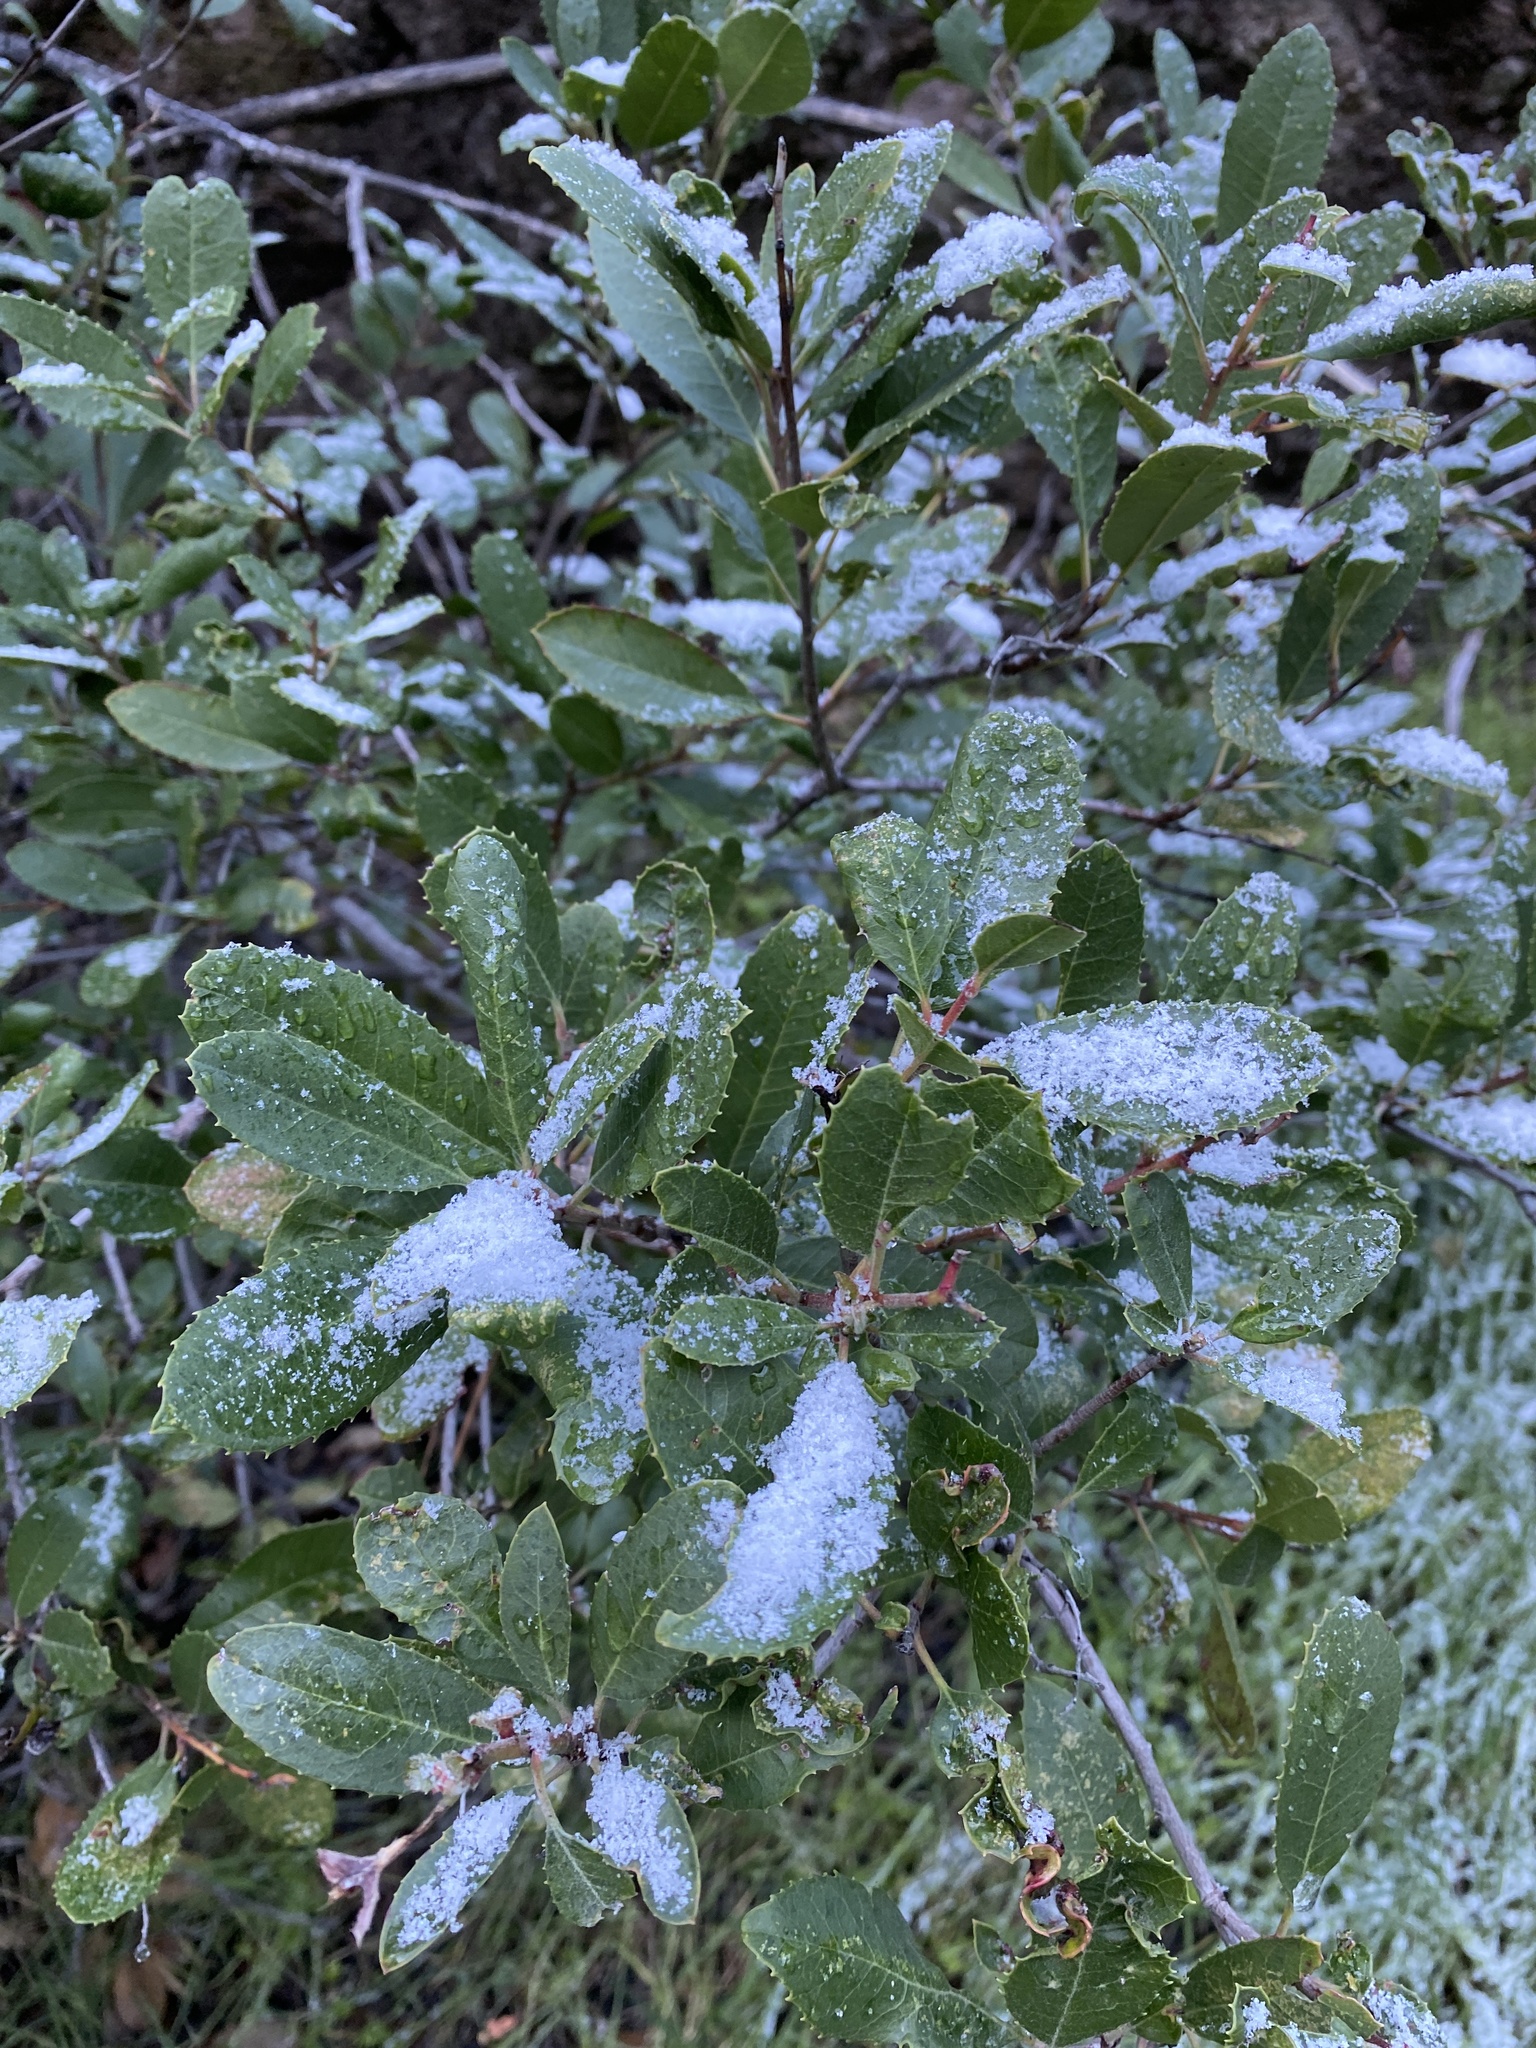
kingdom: Plantae
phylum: Tracheophyta
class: Magnoliopsida
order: Rosales
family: Rosaceae
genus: Heteromeles
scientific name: Heteromeles arbutifolia
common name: California-holly
